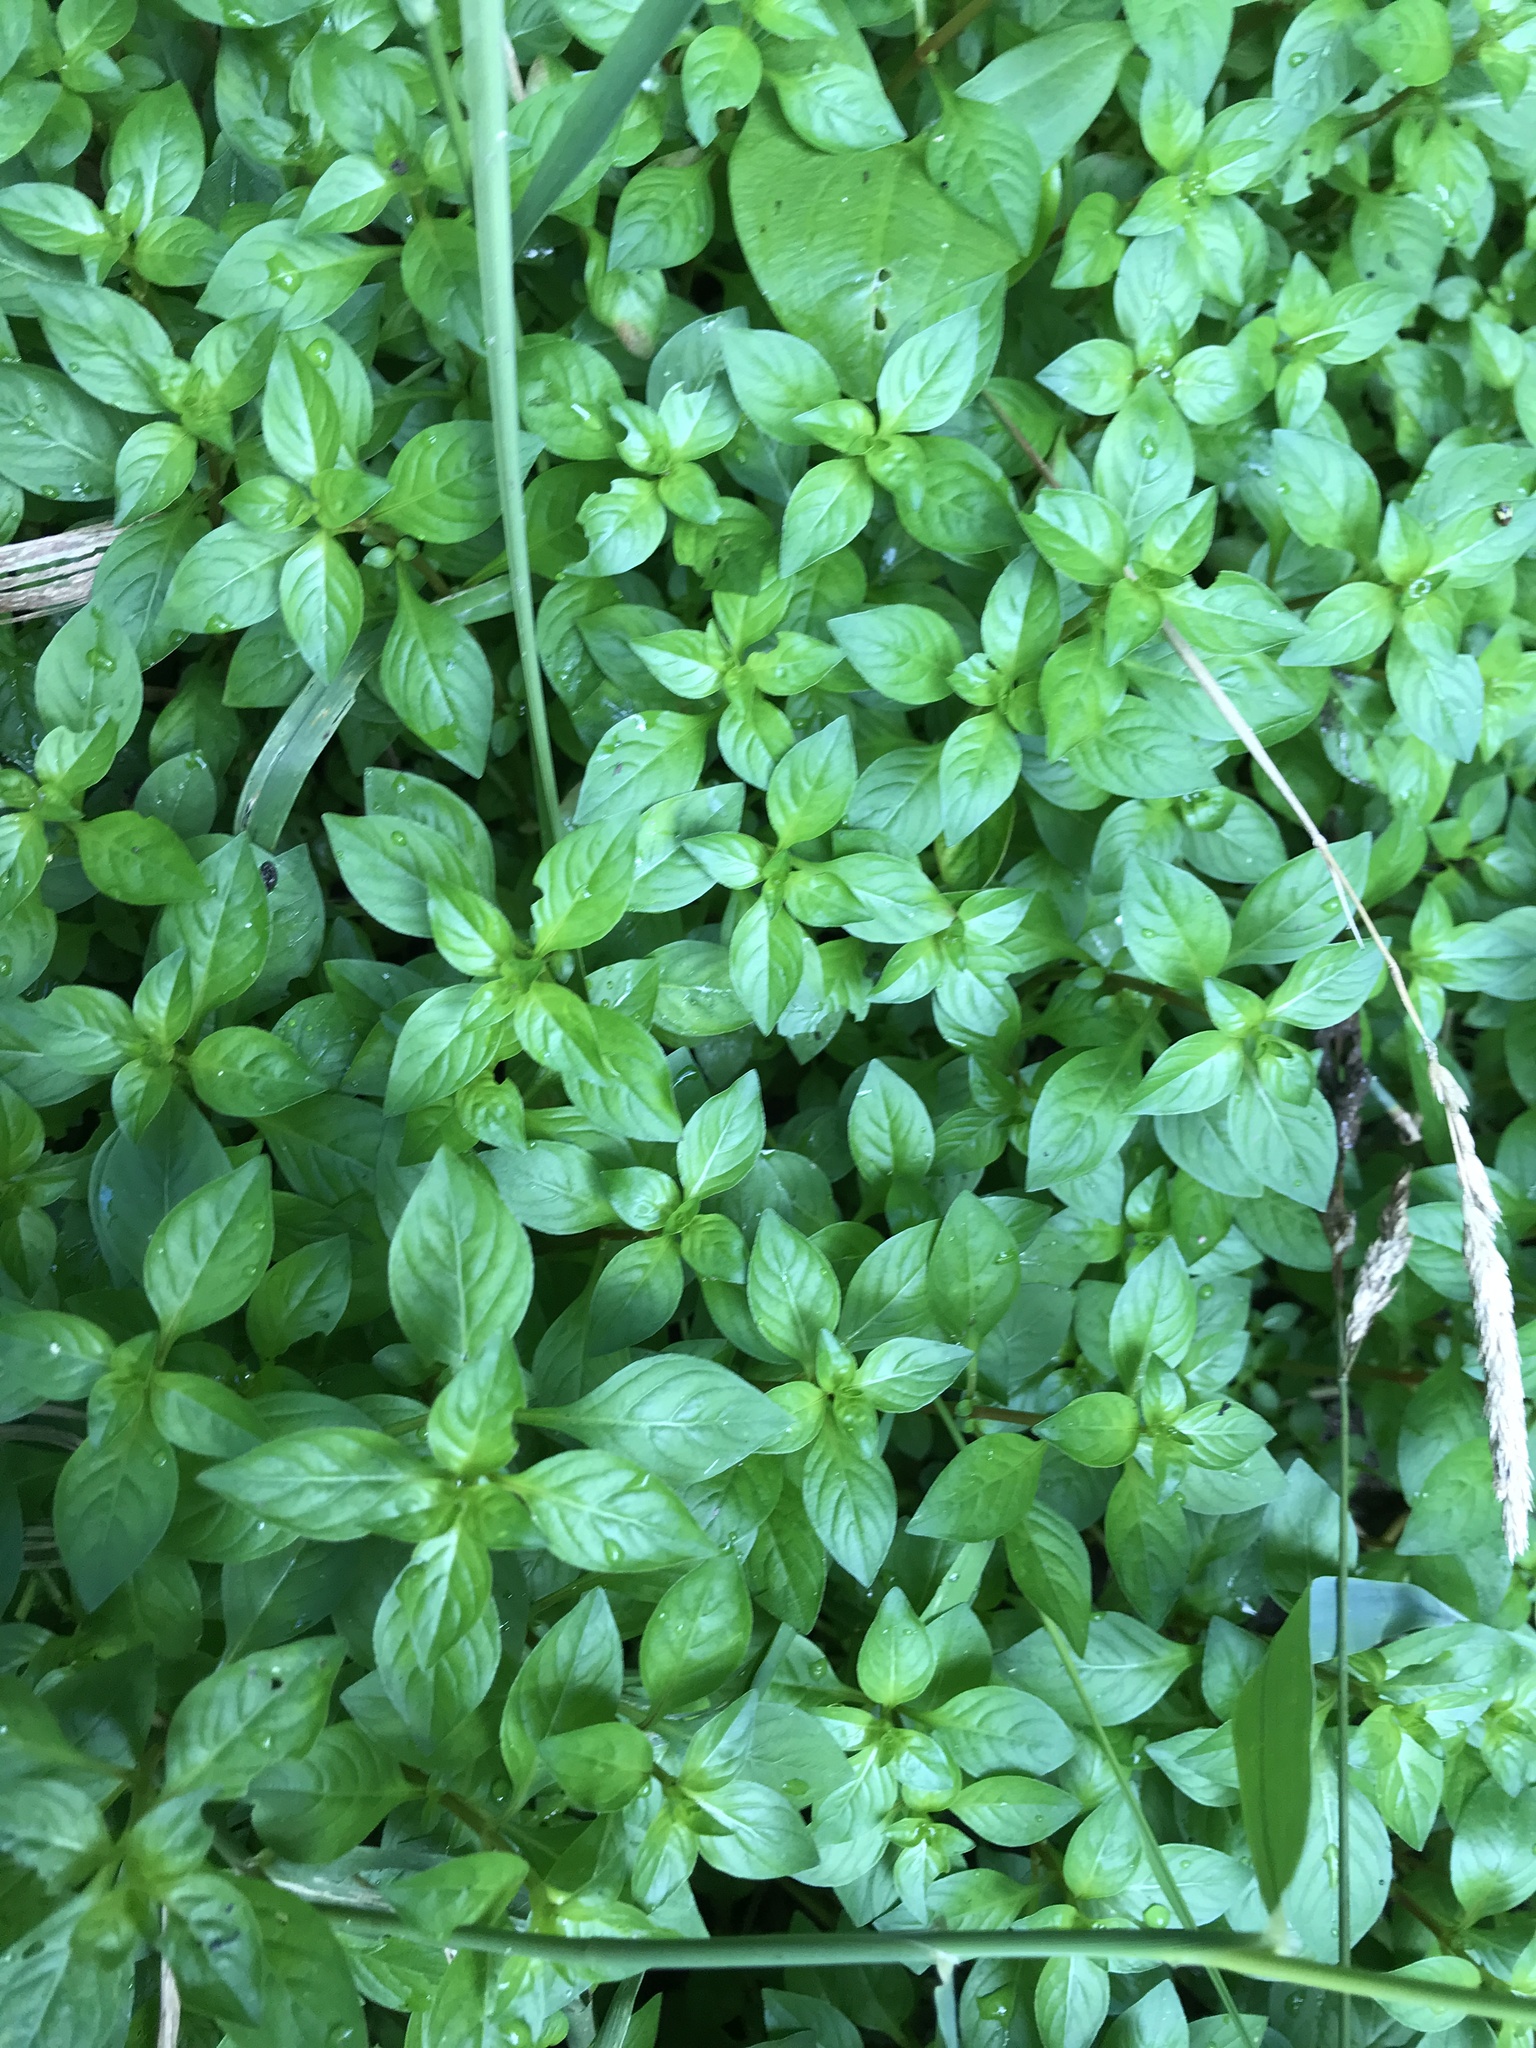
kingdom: Plantae
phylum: Tracheophyta
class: Magnoliopsida
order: Myrtales
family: Onagraceae
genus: Ludwigia
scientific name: Ludwigia palustris
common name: Hampshire-purslane
